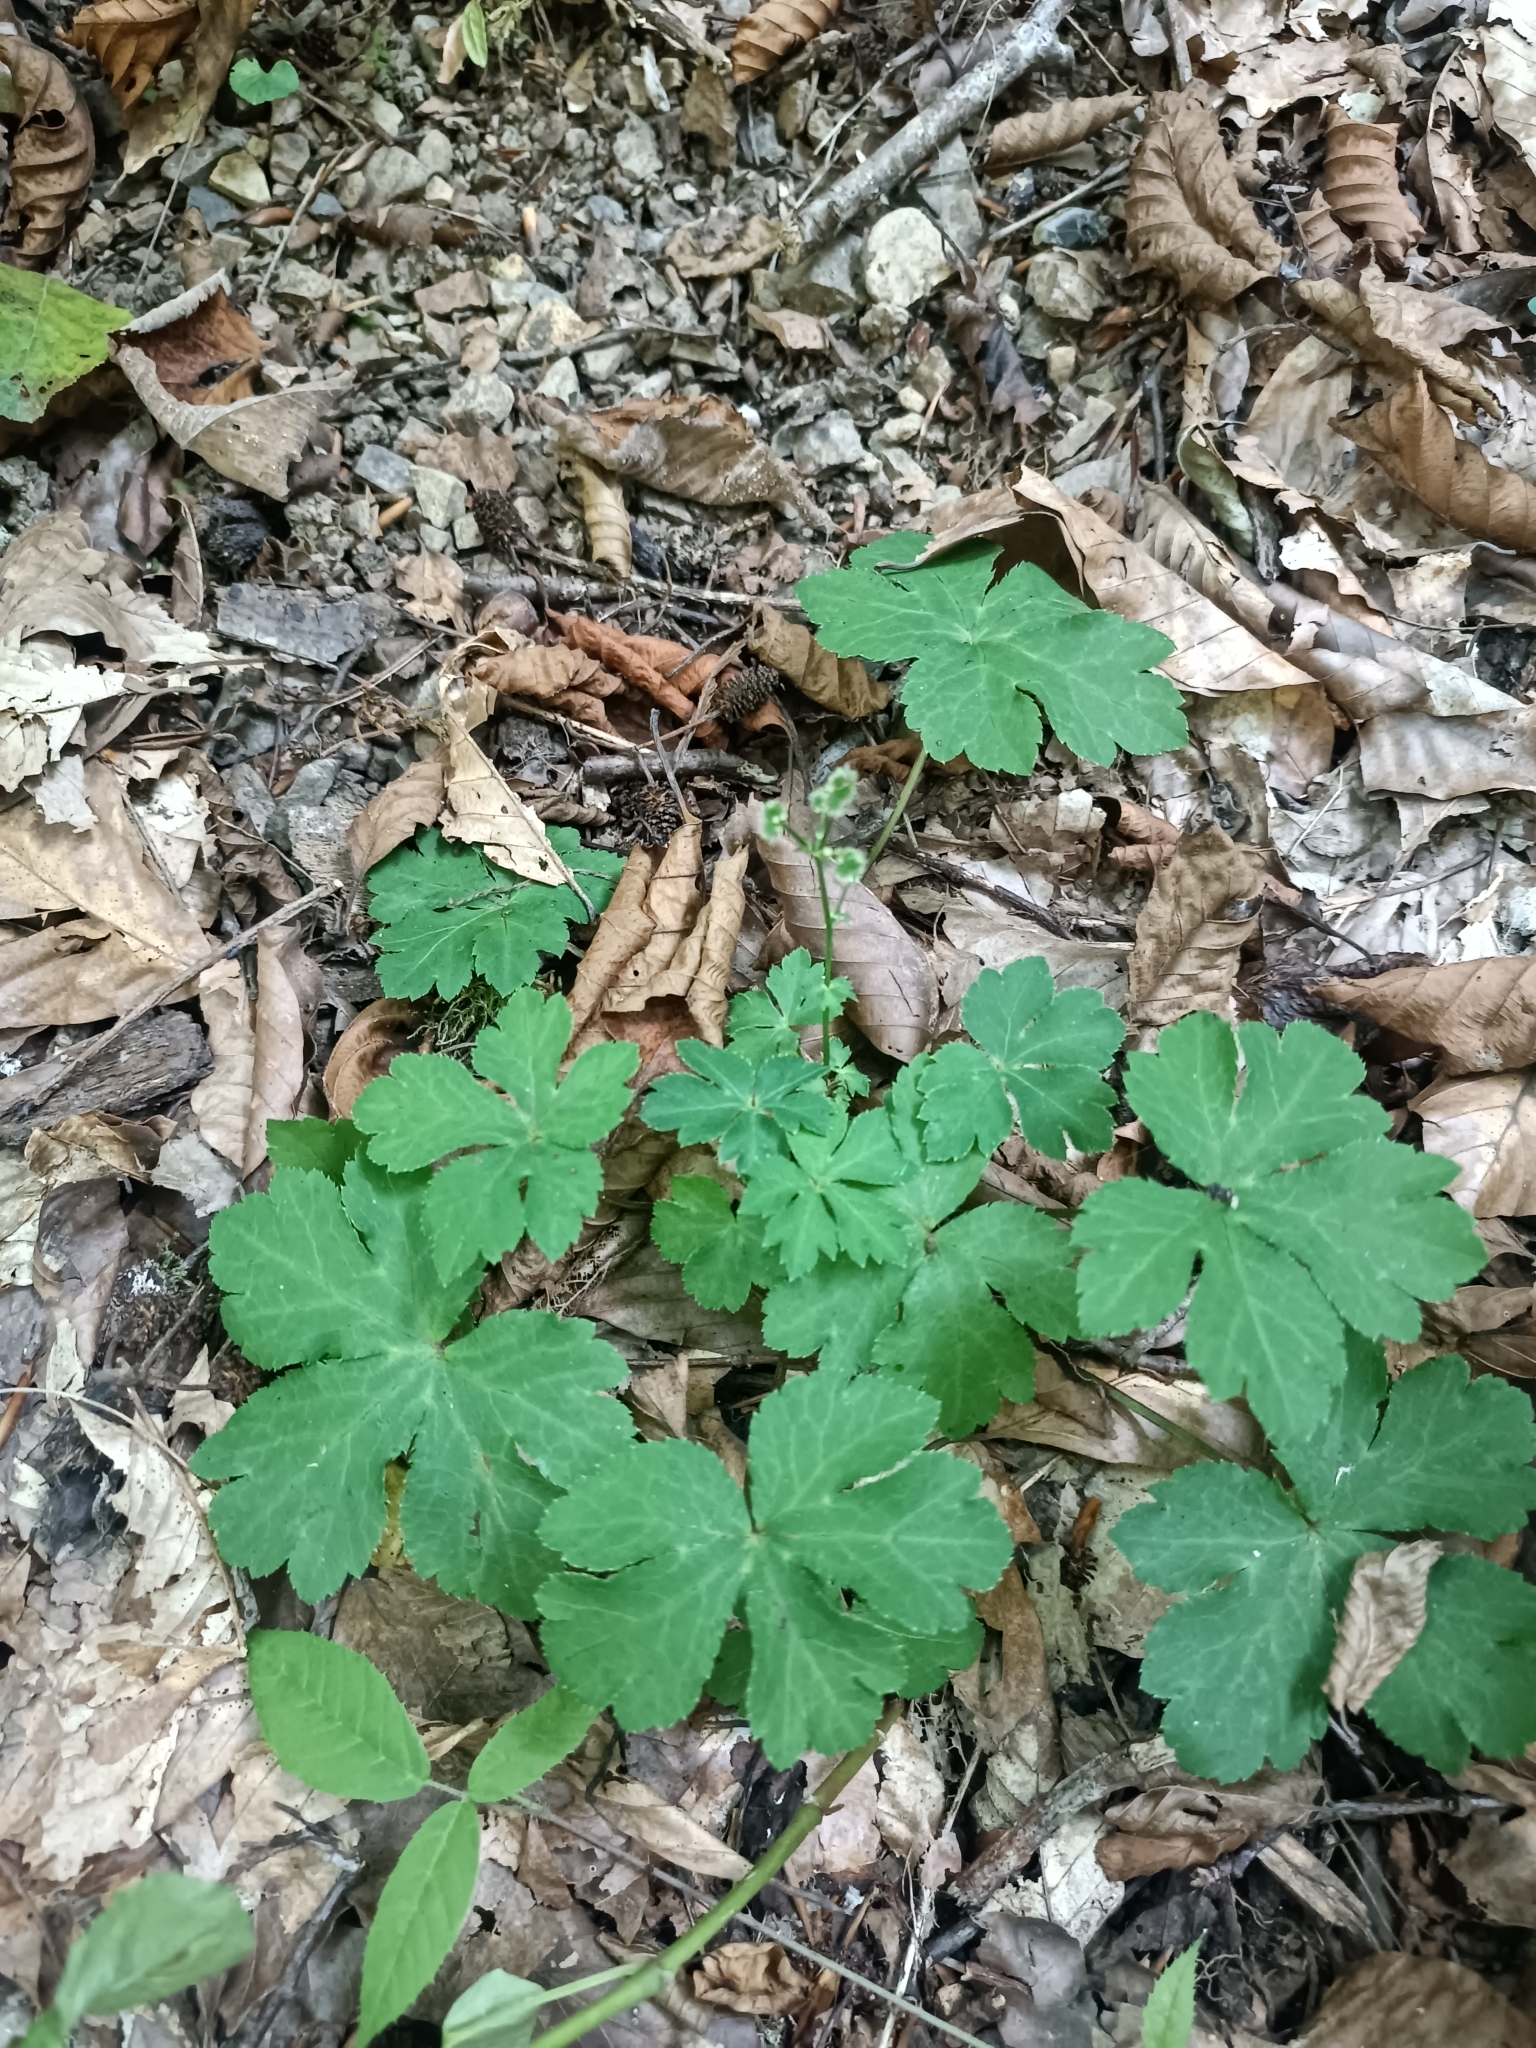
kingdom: Plantae
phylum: Tracheophyta
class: Magnoliopsida
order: Apiales
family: Apiaceae
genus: Sanicula
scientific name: Sanicula europaea
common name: Sanicle
